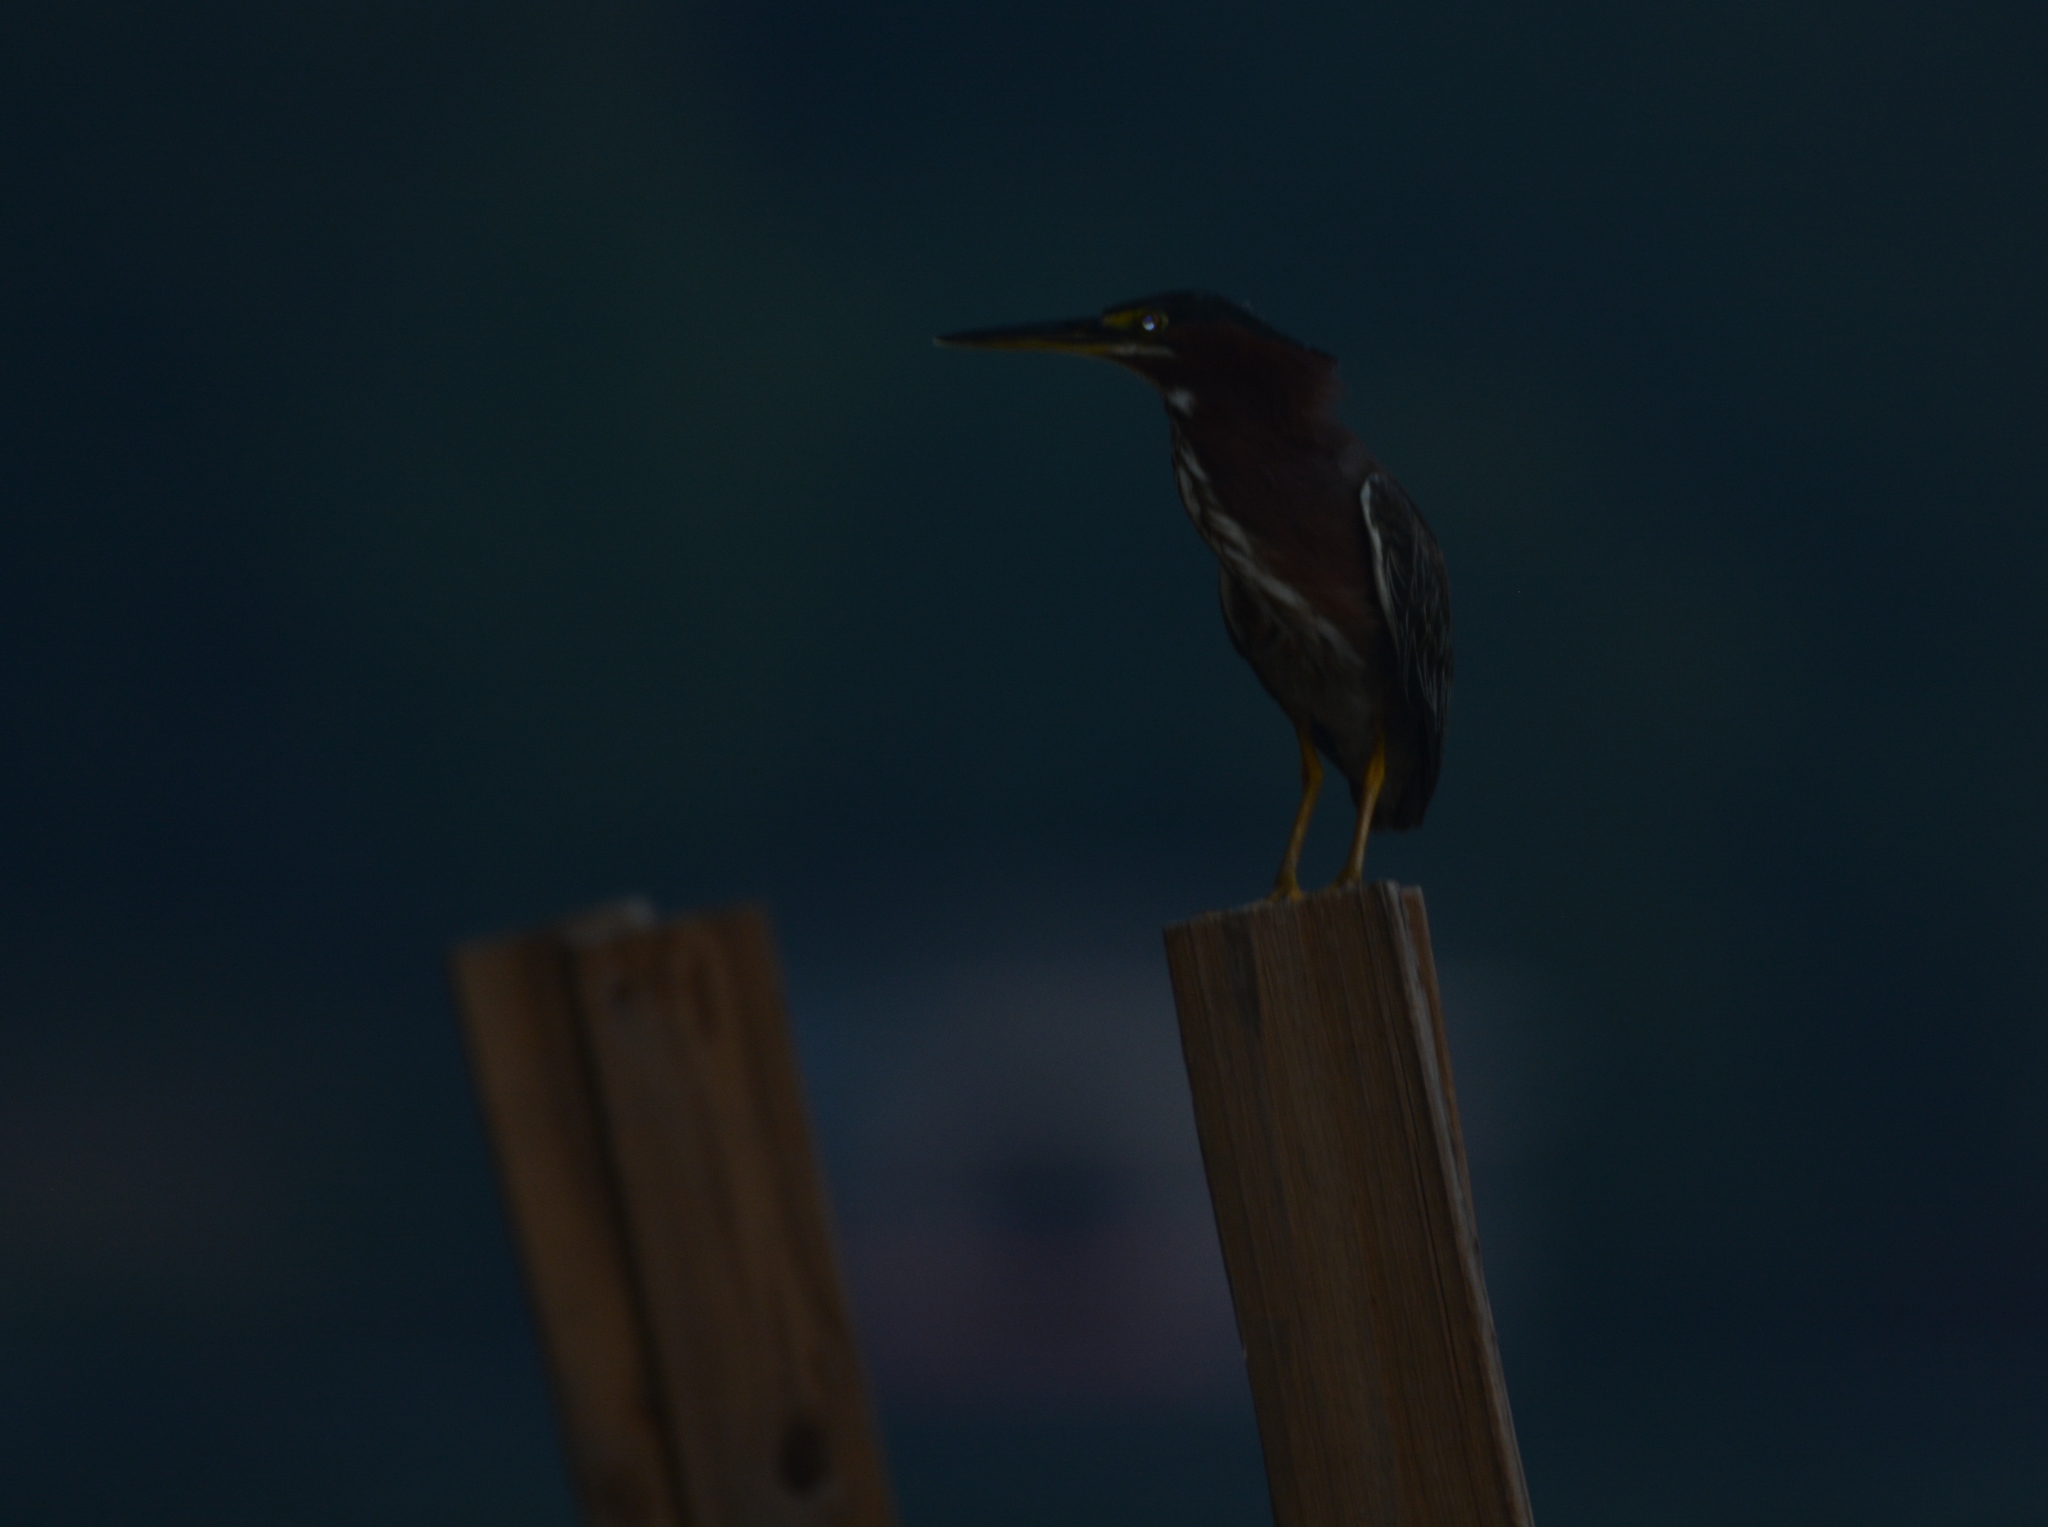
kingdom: Animalia
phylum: Chordata
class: Aves
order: Pelecaniformes
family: Ardeidae
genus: Butorides
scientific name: Butorides virescens
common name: Green heron
